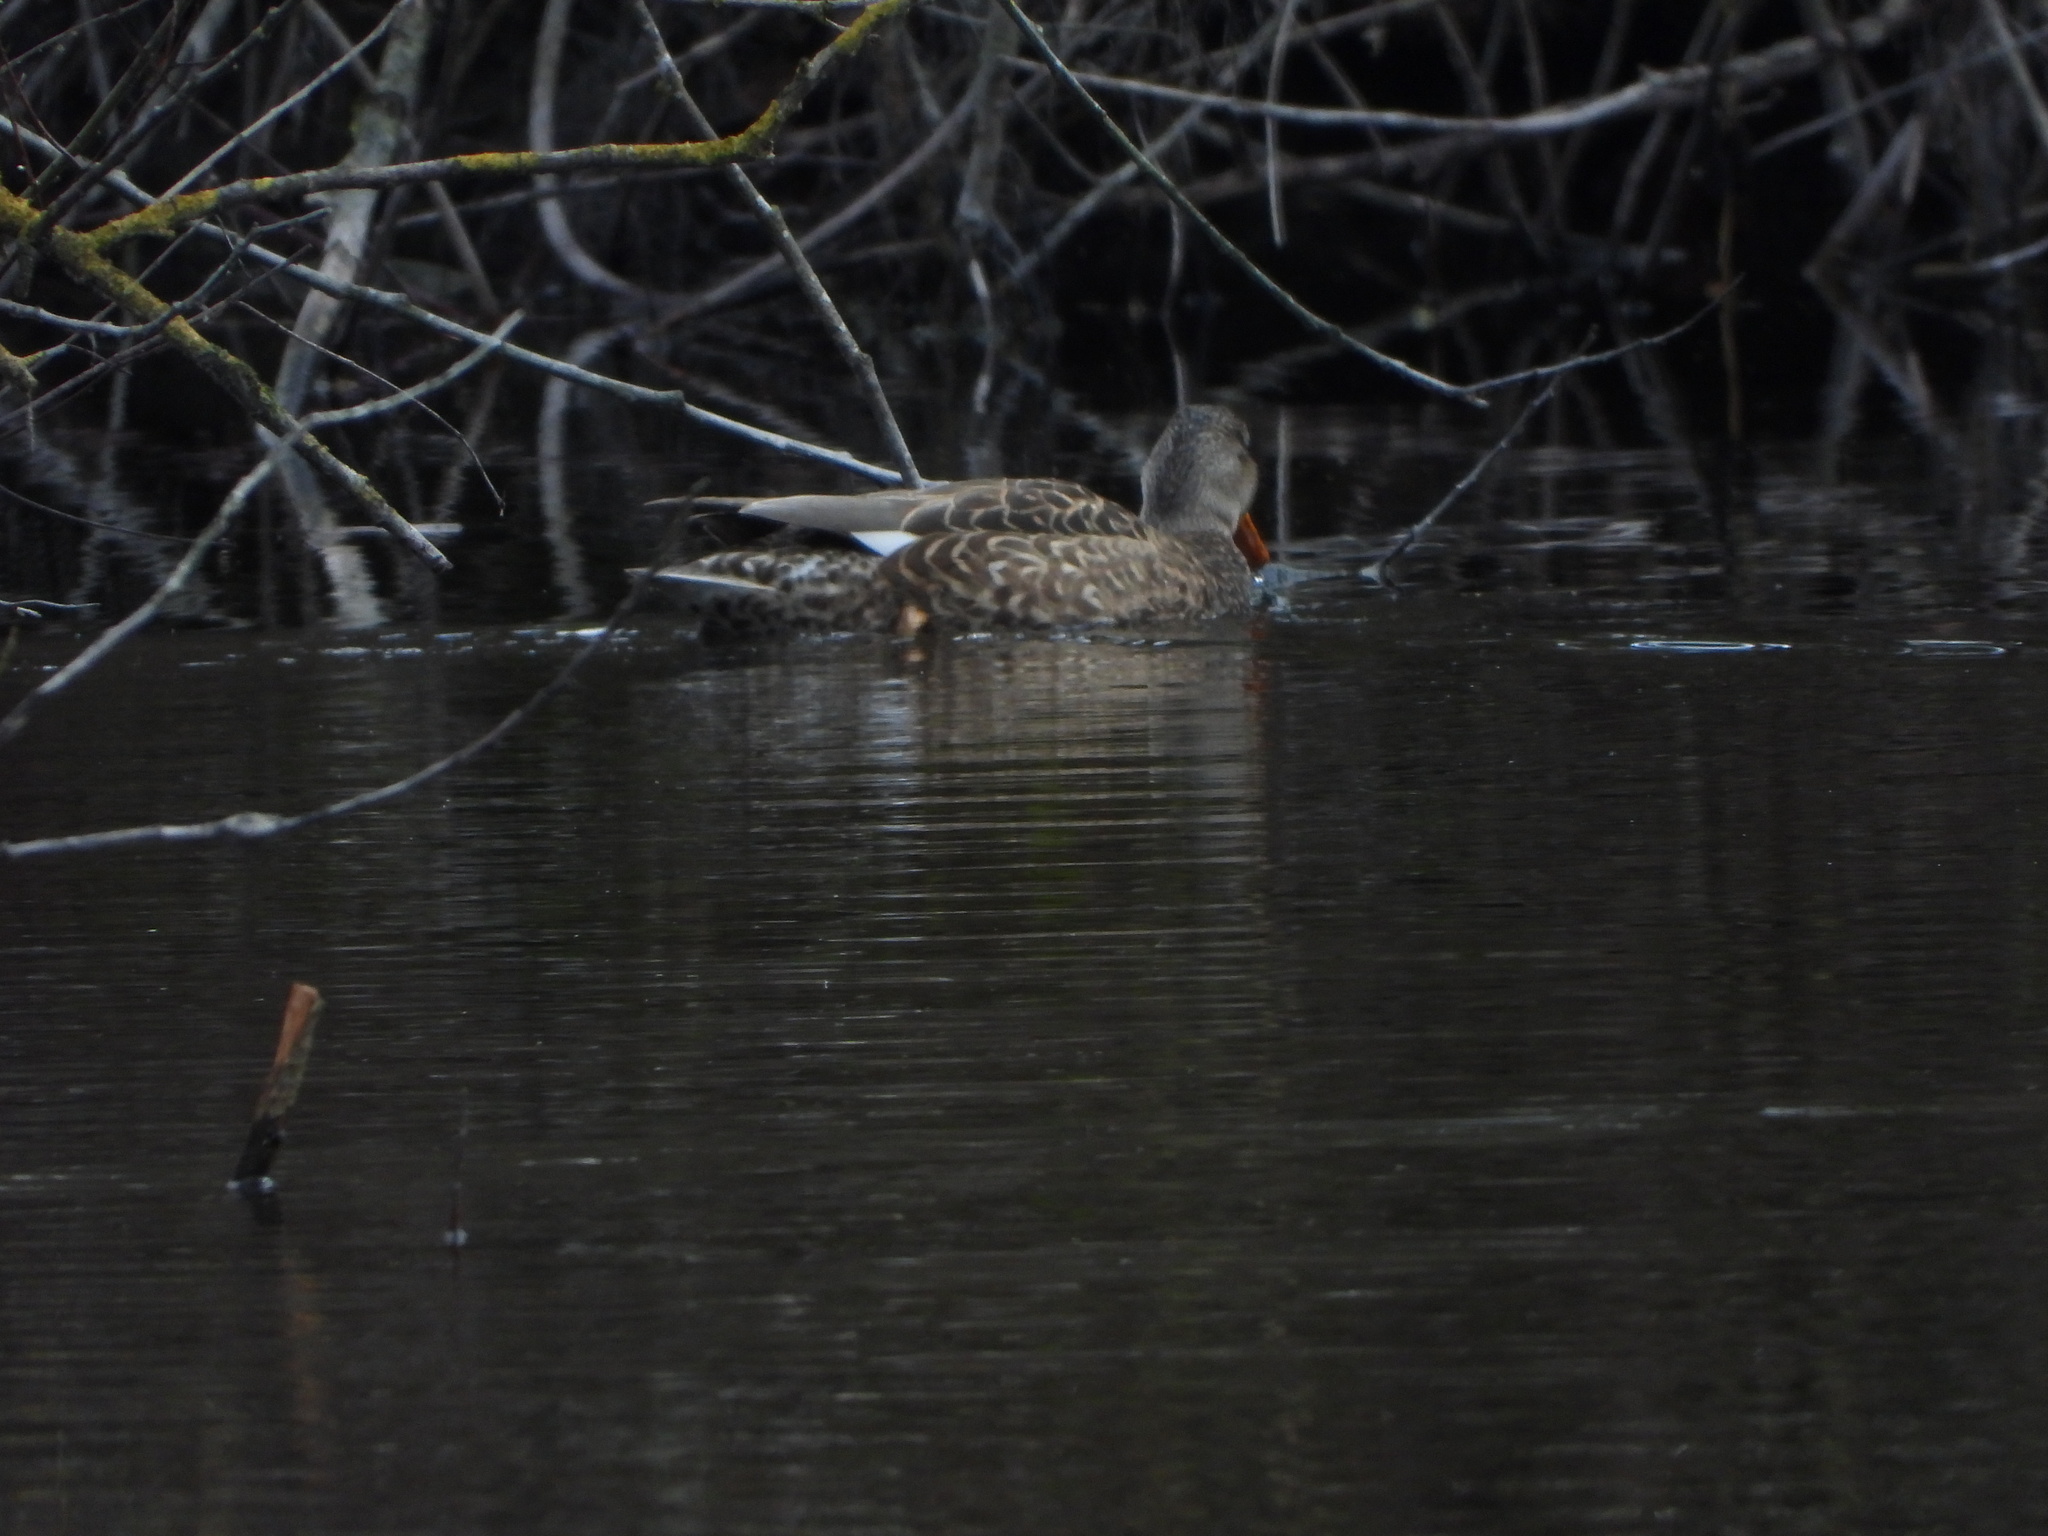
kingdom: Animalia
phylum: Chordata
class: Aves
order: Anseriformes
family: Anatidae
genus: Mareca
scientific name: Mareca strepera
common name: Gadwall
